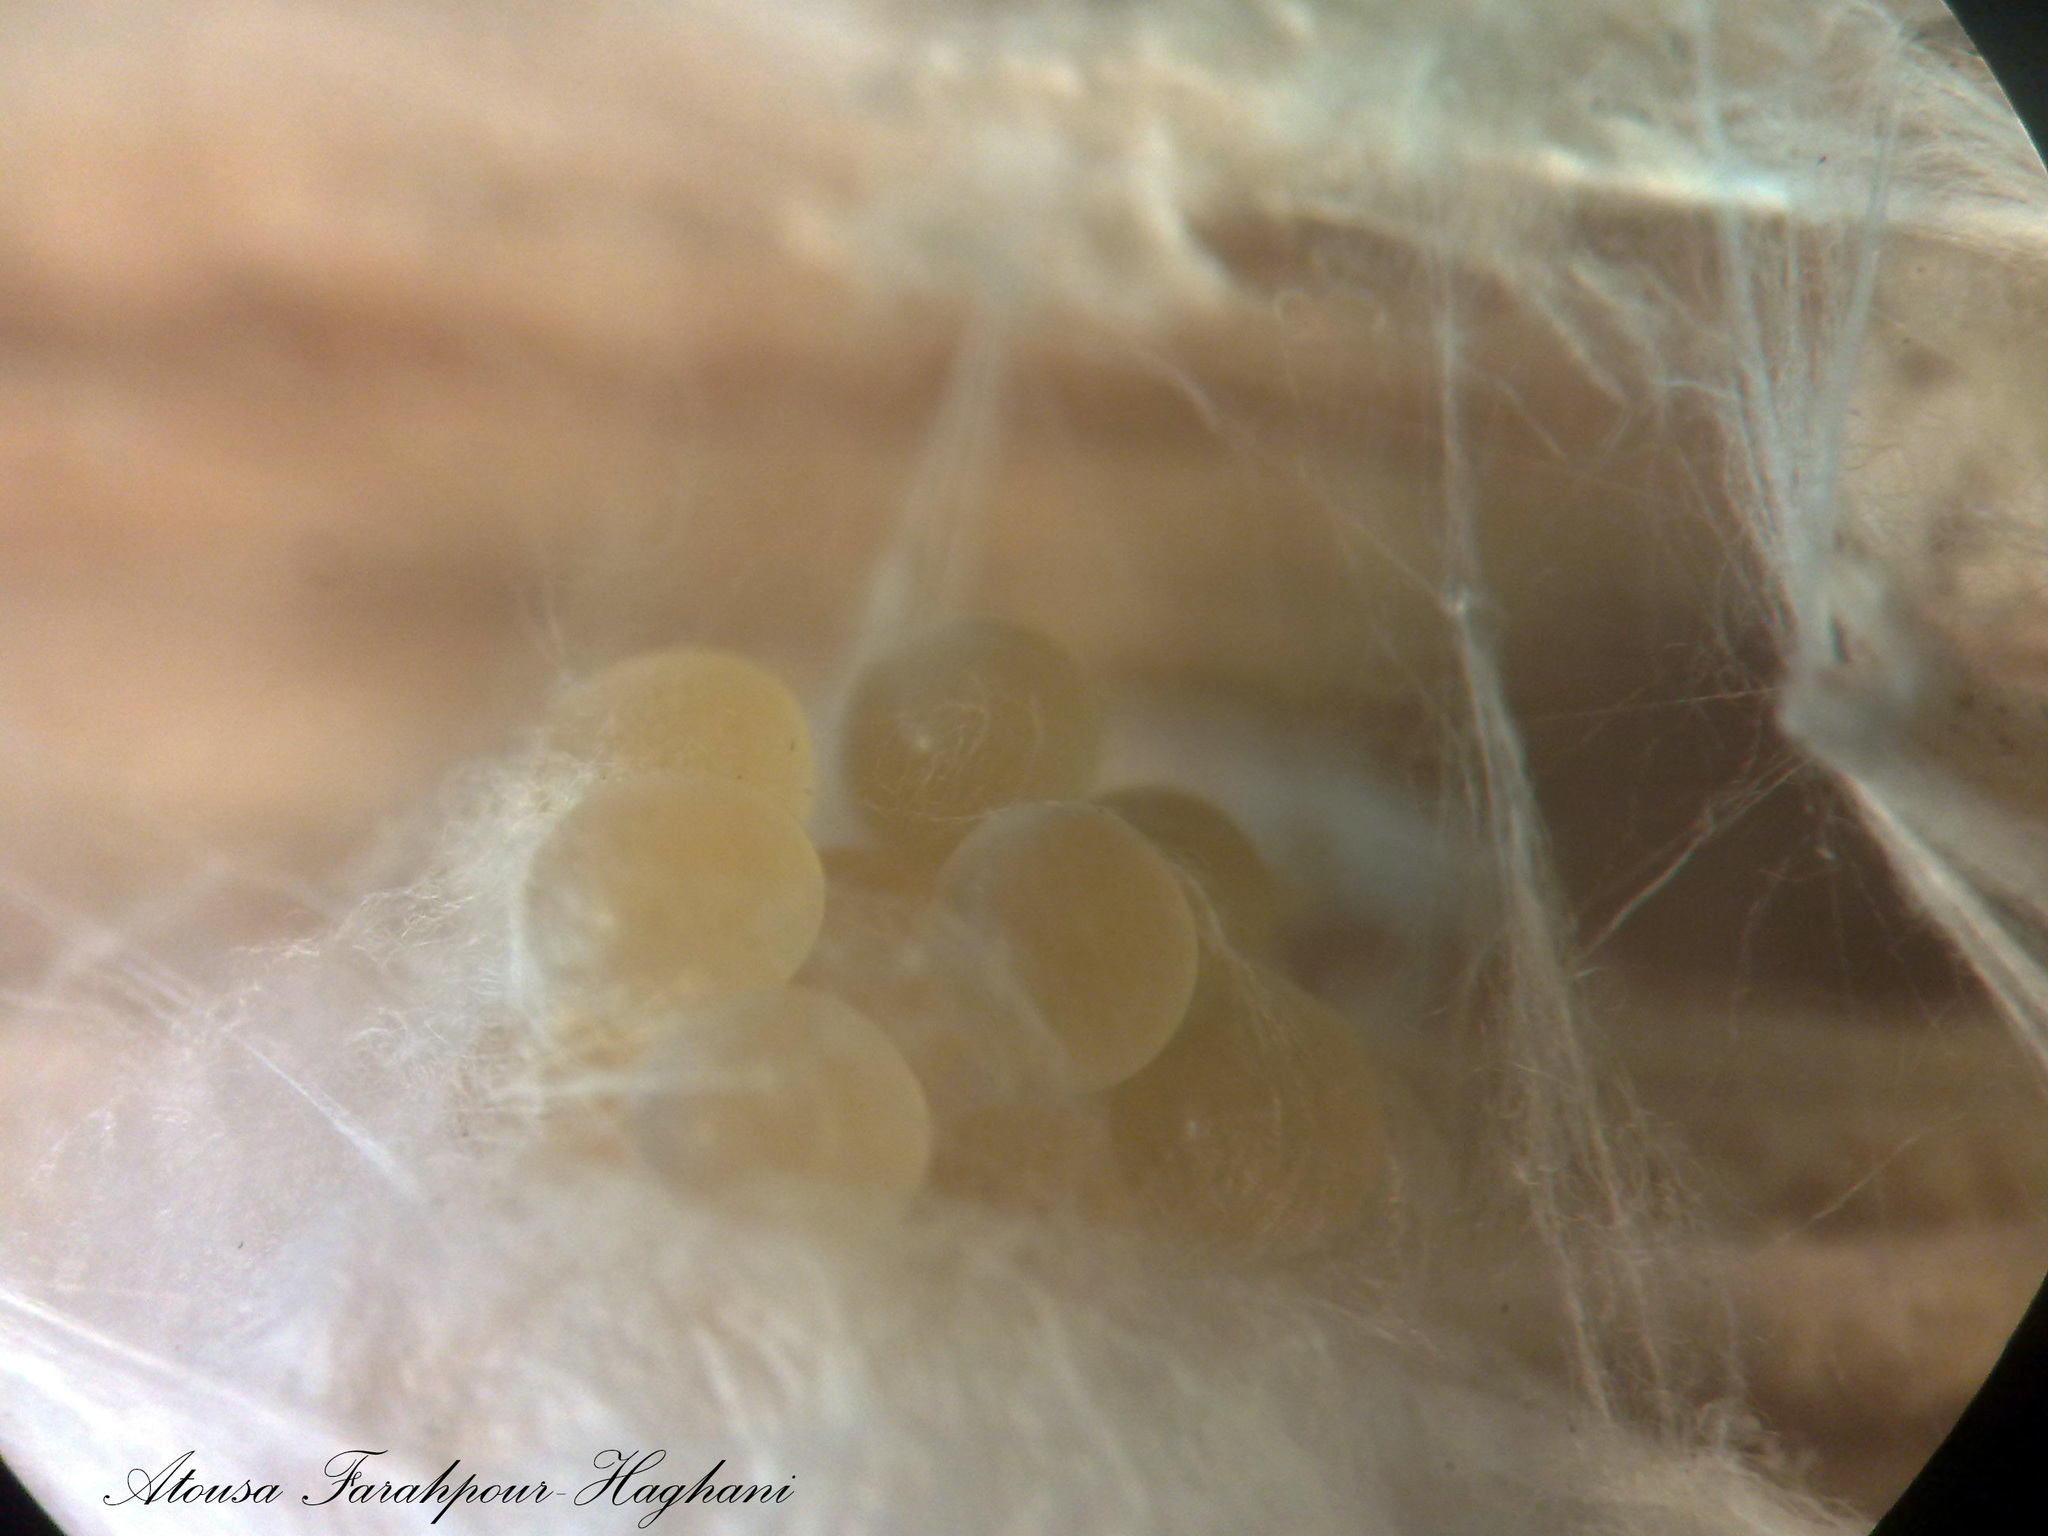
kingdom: Animalia
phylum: Arthropoda
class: Arachnida
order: Araneae
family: Gnaphosidae
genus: Aphantaulax
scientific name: Aphantaulax trifasciata
